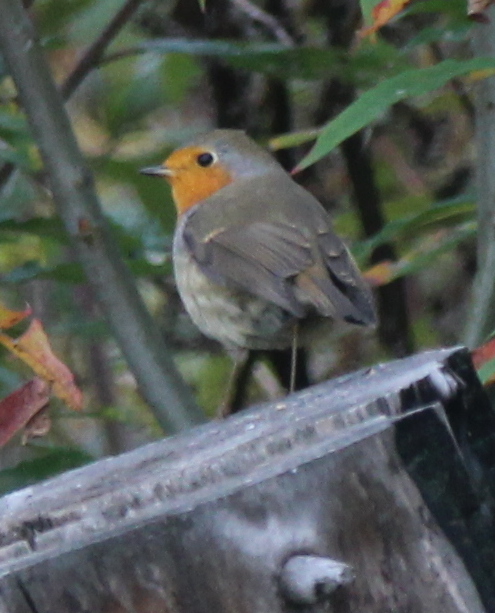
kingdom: Animalia
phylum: Chordata
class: Aves
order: Passeriformes
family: Muscicapidae
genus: Erithacus
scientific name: Erithacus rubecula
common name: European robin
